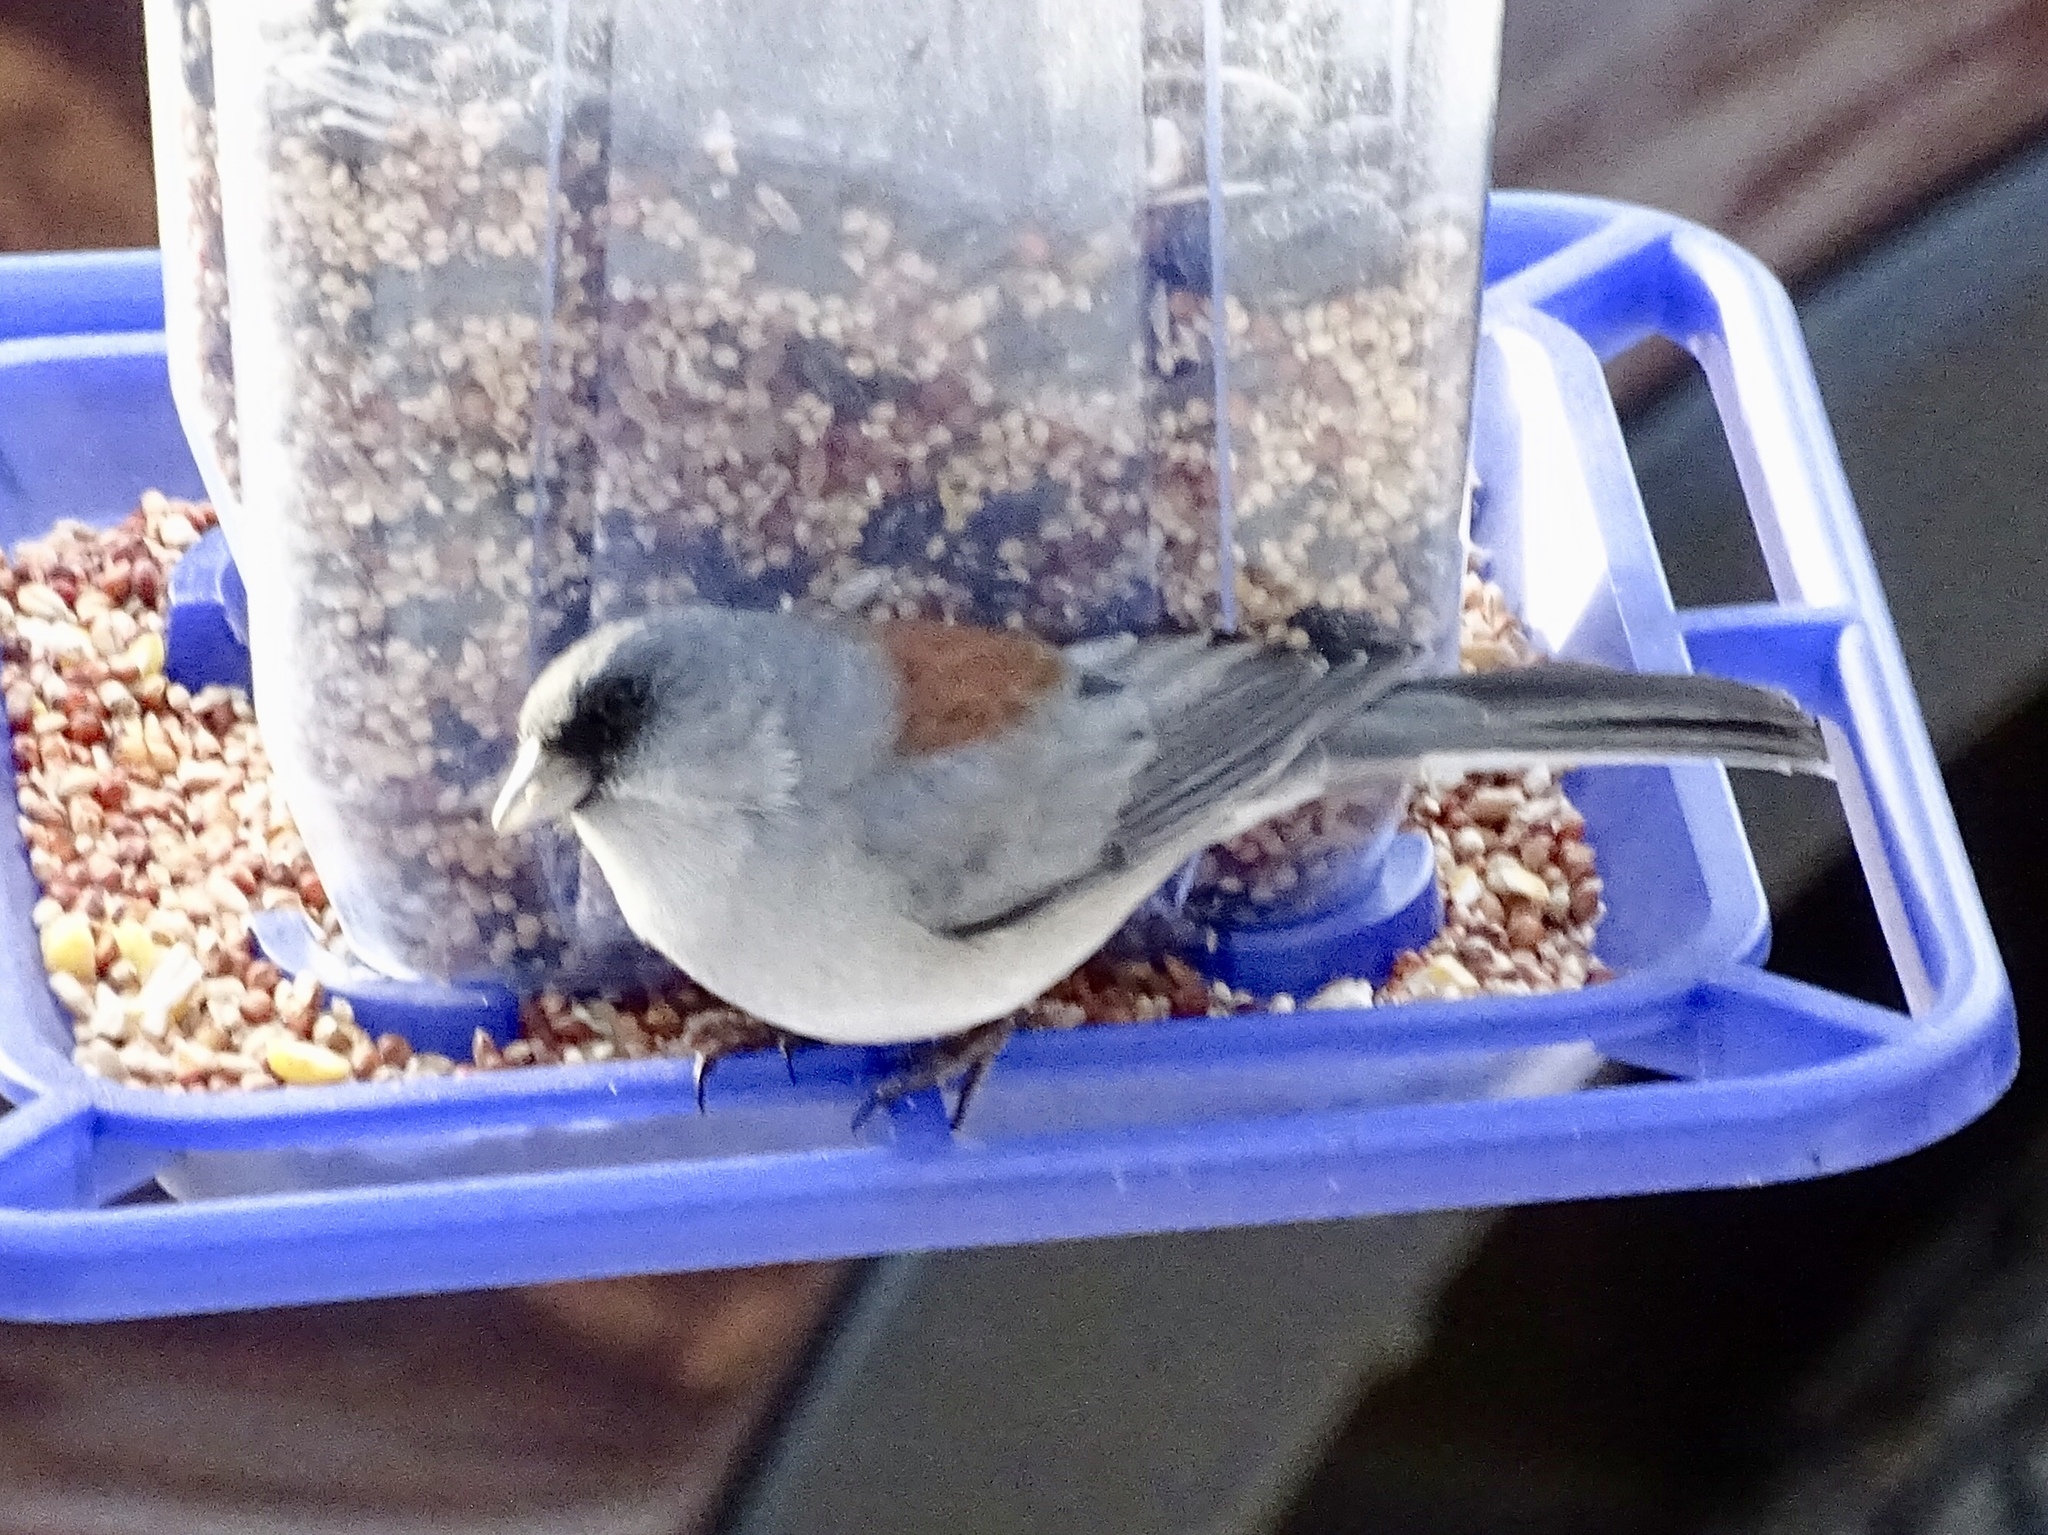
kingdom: Animalia
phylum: Chordata
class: Aves
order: Passeriformes
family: Passerellidae
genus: Junco
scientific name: Junco hyemalis
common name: Dark-eyed junco
